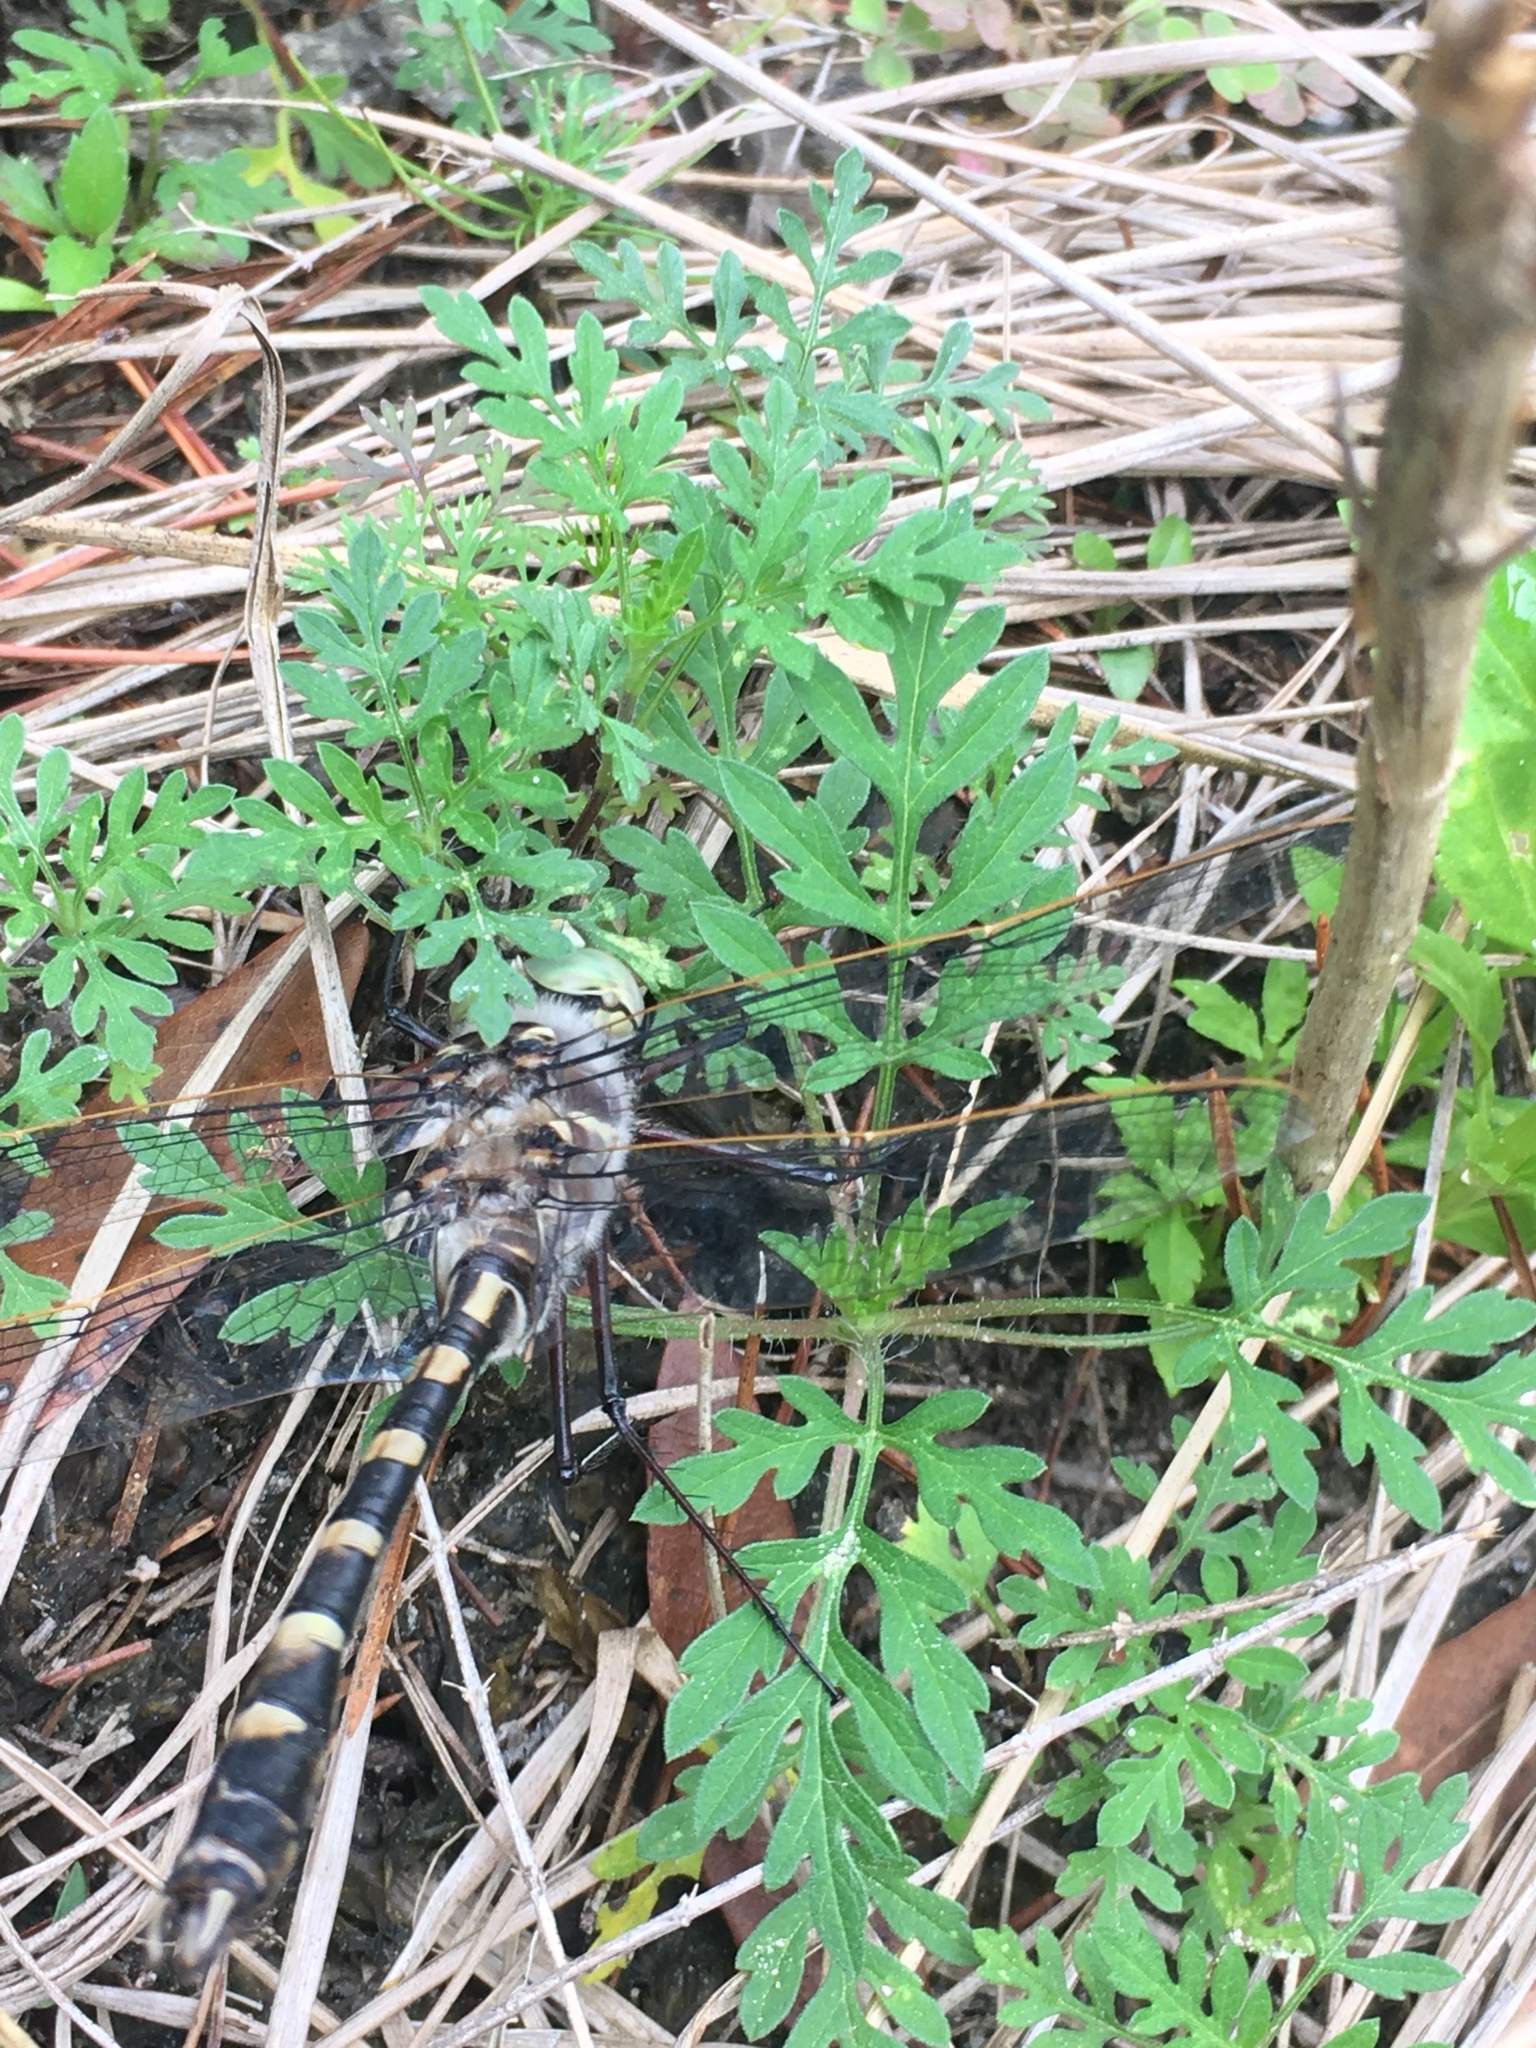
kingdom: Animalia
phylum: Arthropoda
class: Insecta
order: Odonata
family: Macromiidae
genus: Didymops
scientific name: Didymops floridensis
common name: Florida cruiser
